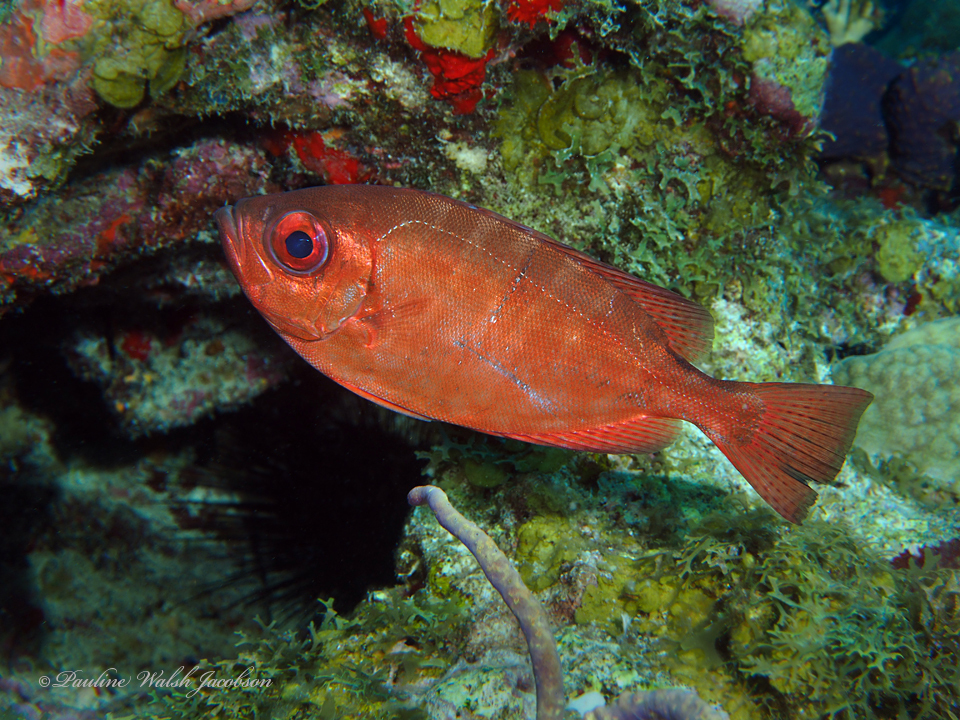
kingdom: Animalia
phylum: Chordata
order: Perciformes
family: Priacanthidae
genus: Heteropriacanthus
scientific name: Heteropriacanthus cruentatus
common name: Glasseye
